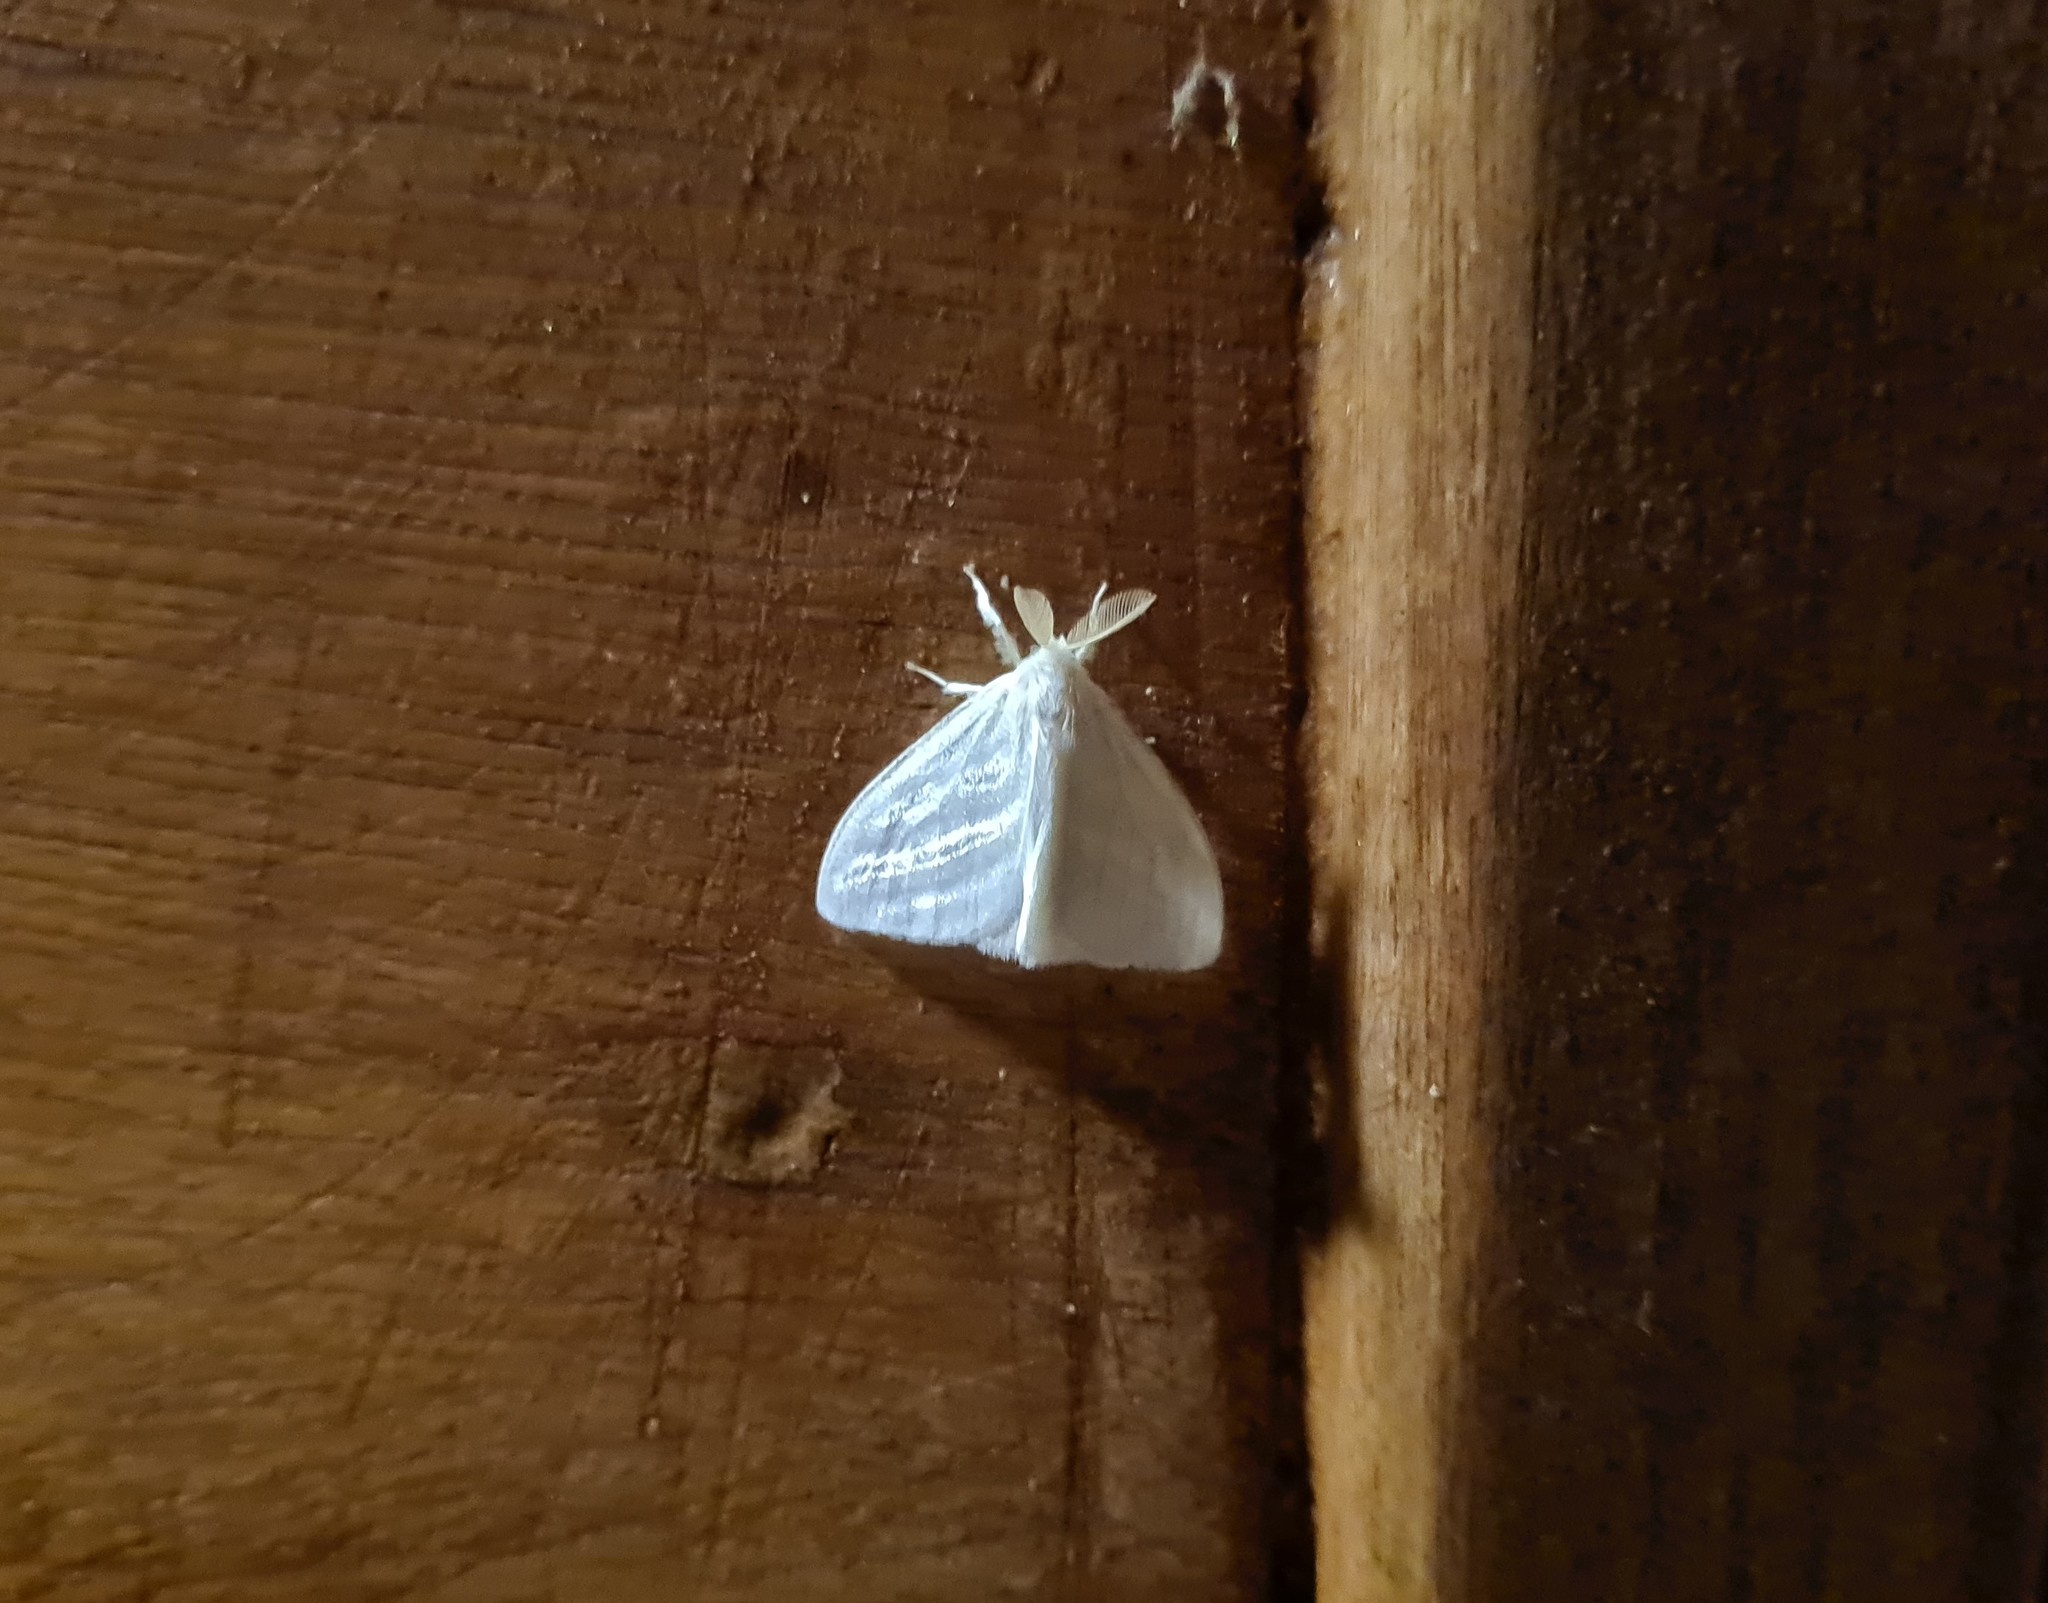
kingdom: Animalia
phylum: Arthropoda
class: Insecta
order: Lepidoptera
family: Erebidae
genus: Caviria
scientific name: Caviria regina
